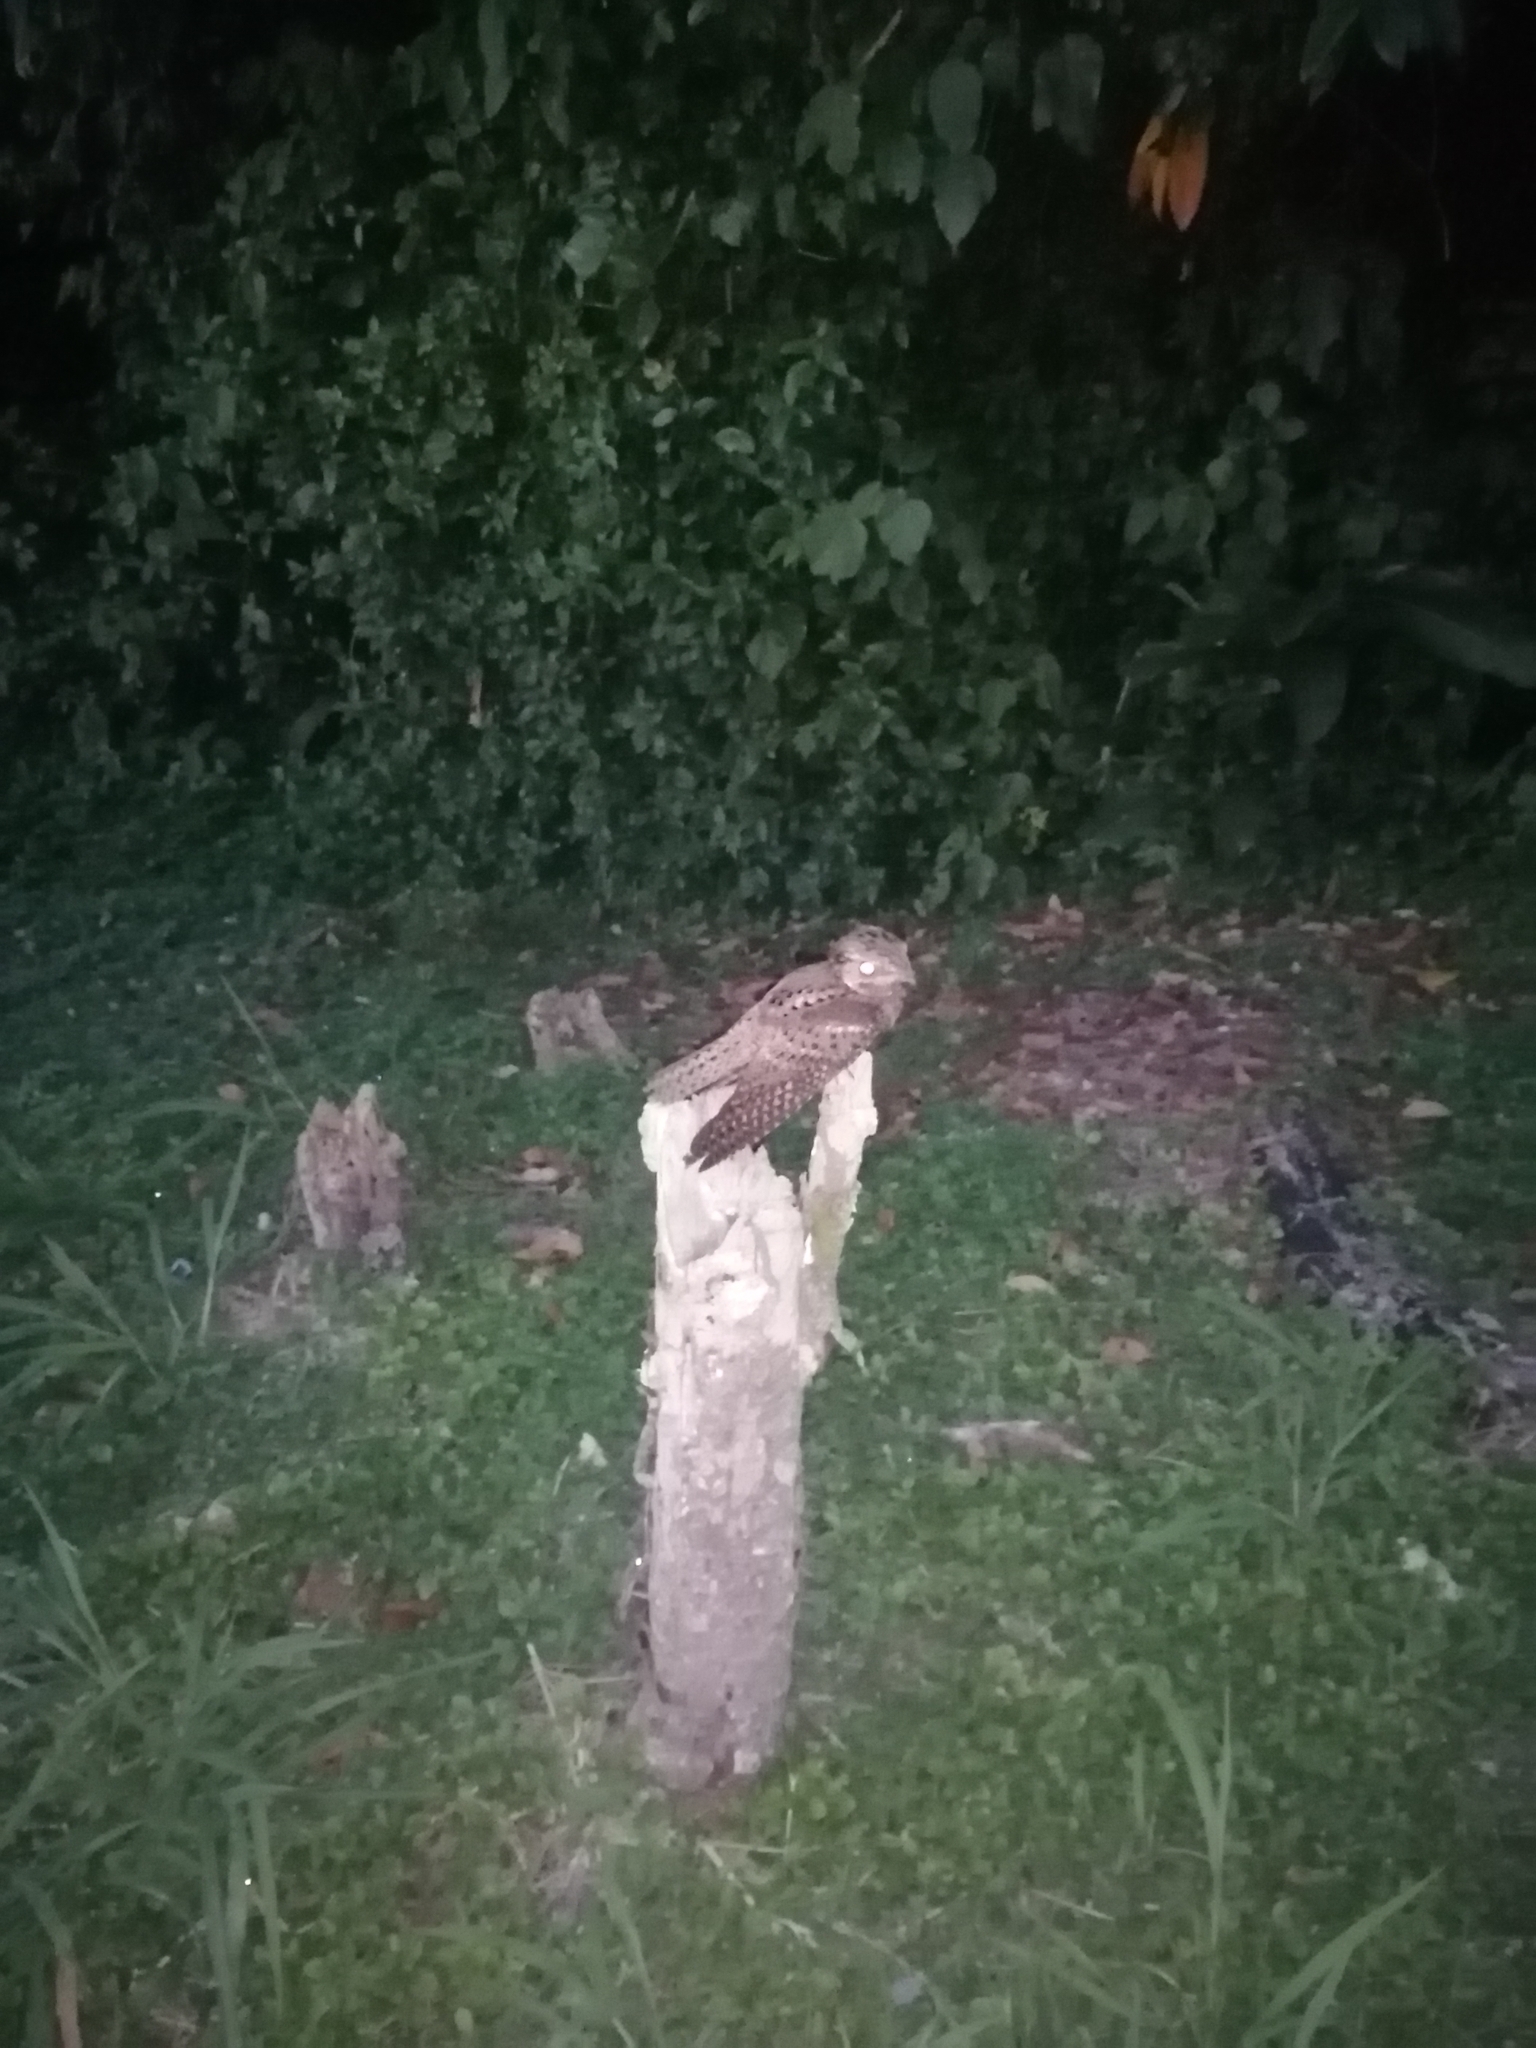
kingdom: Animalia
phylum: Chordata
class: Aves
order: Caprimulgiformes
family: Caprimulgidae
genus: Antrostomus
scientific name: Antrostomus carolinensis
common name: Chuck-will's-widow
